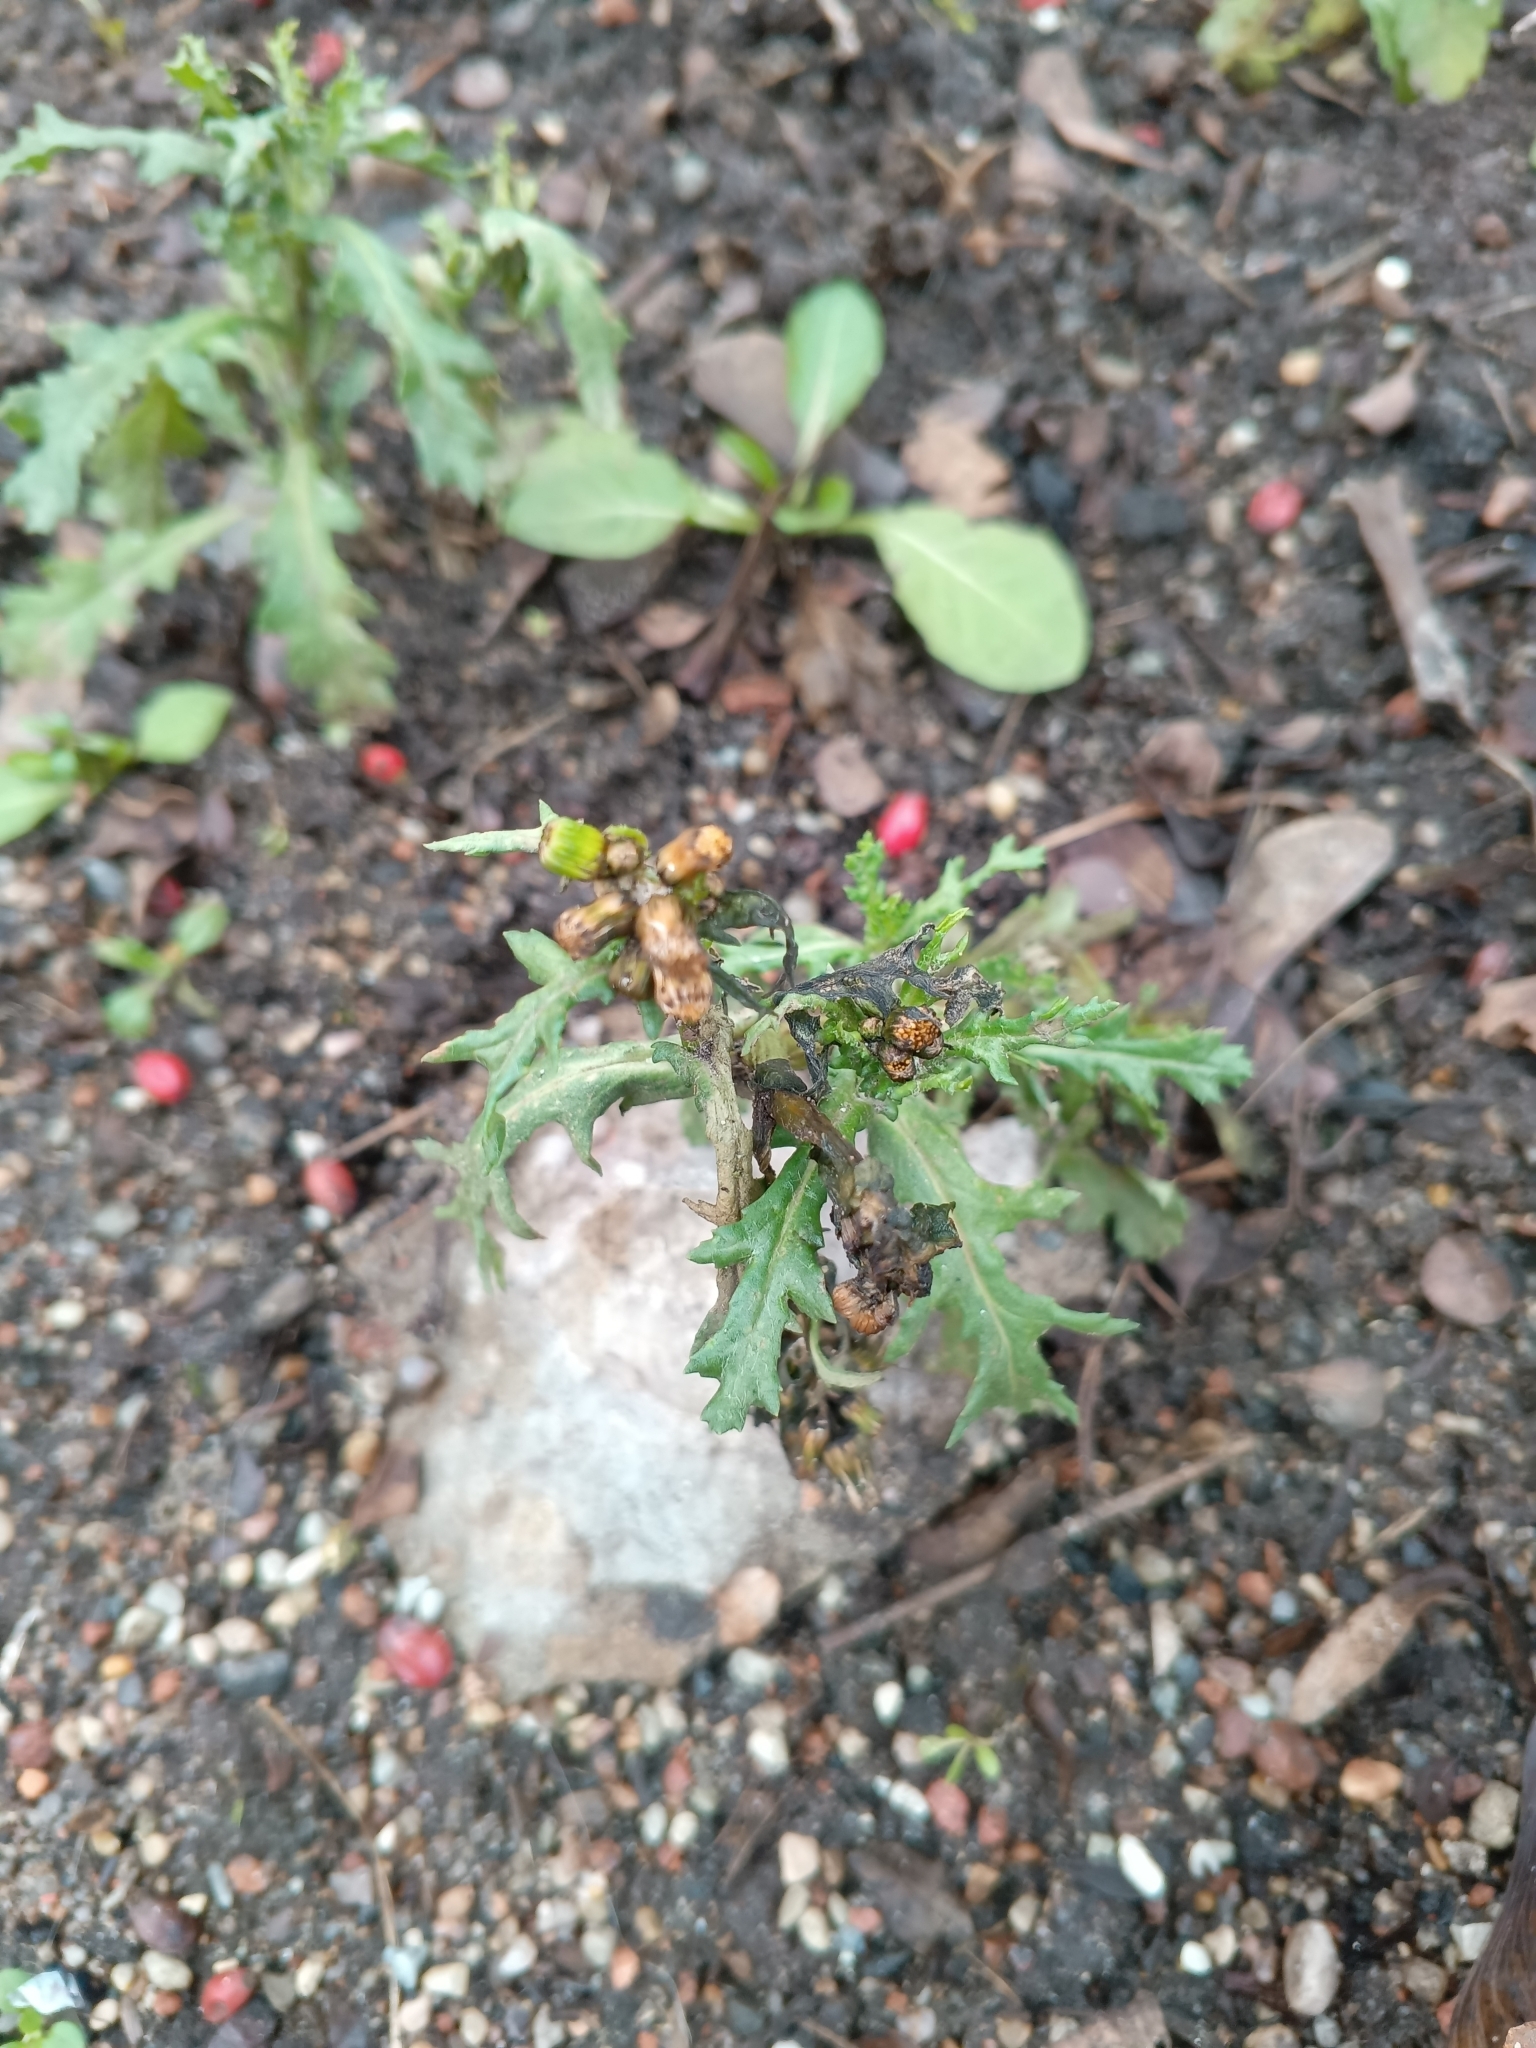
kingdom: Plantae
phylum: Tracheophyta
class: Magnoliopsida
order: Asterales
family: Asteraceae
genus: Senecio
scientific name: Senecio vulgaris
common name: Old-man-in-the-spring
